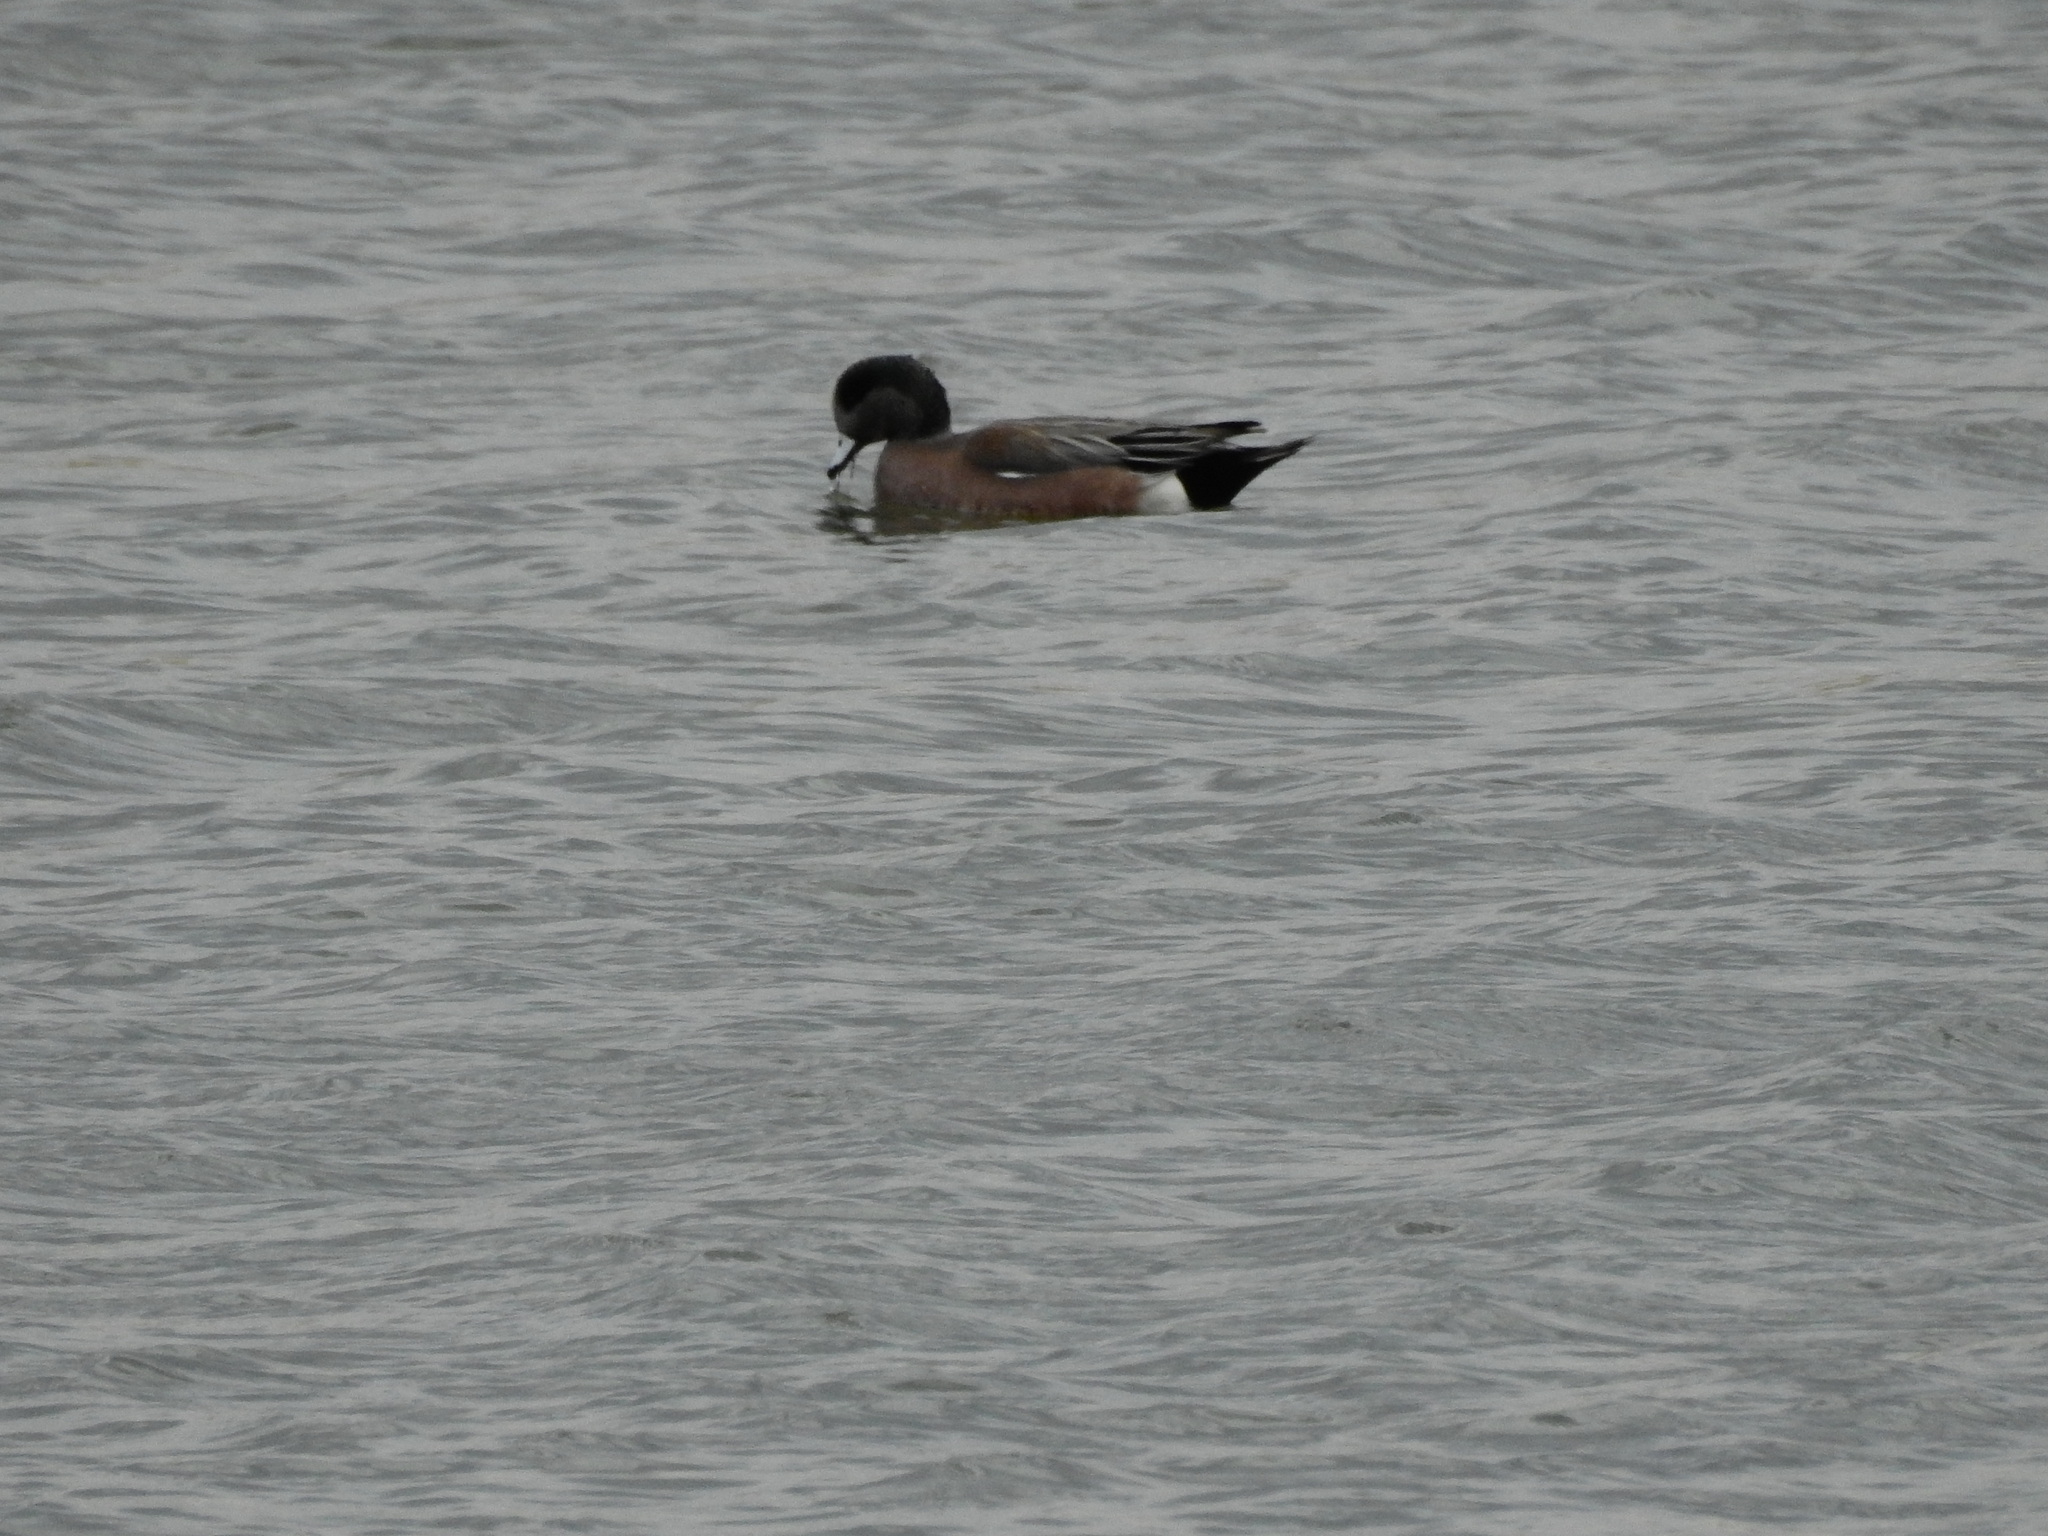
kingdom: Animalia
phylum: Chordata
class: Aves
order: Anseriformes
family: Anatidae
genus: Mareca
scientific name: Mareca americana
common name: American wigeon
